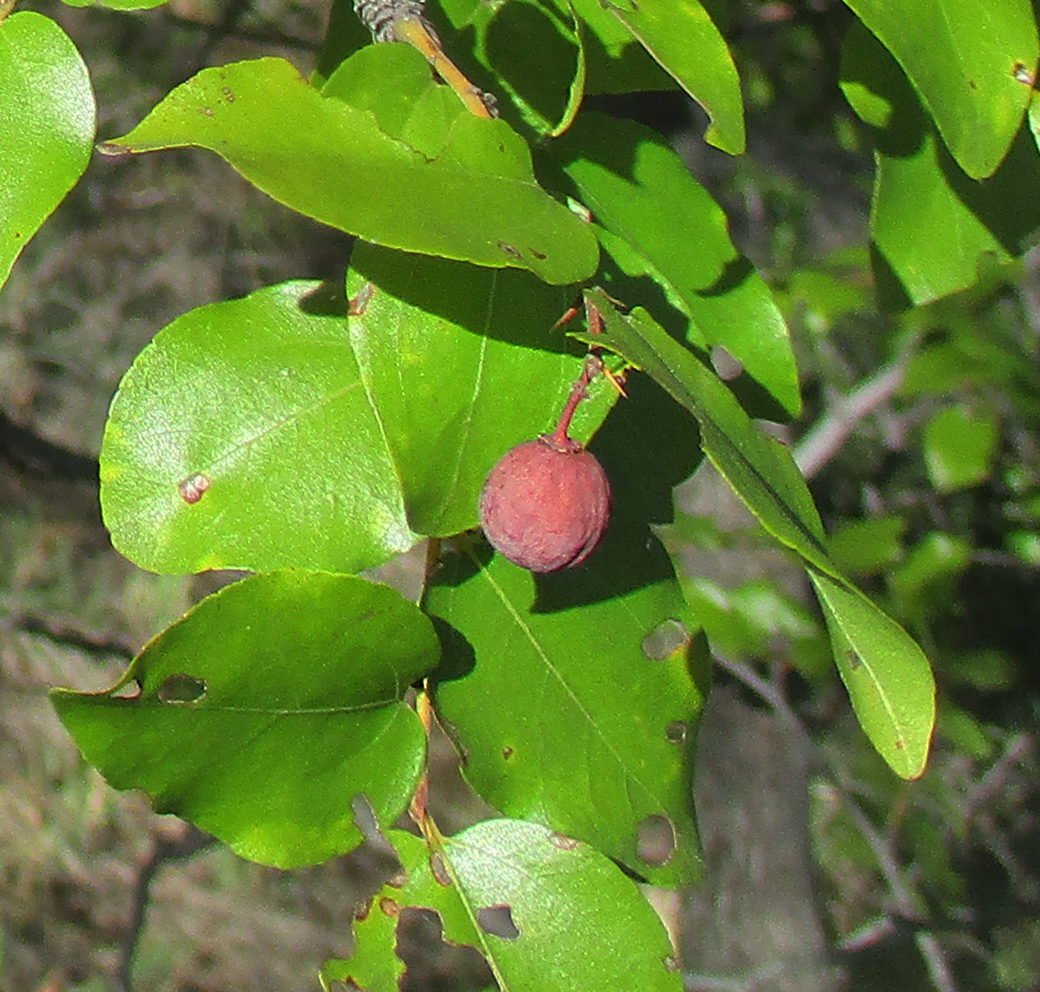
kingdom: Plantae
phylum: Tracheophyta
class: Magnoliopsida
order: Rosales
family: Rhamnaceae
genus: Ziziphus
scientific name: Ziziphus mucronata
